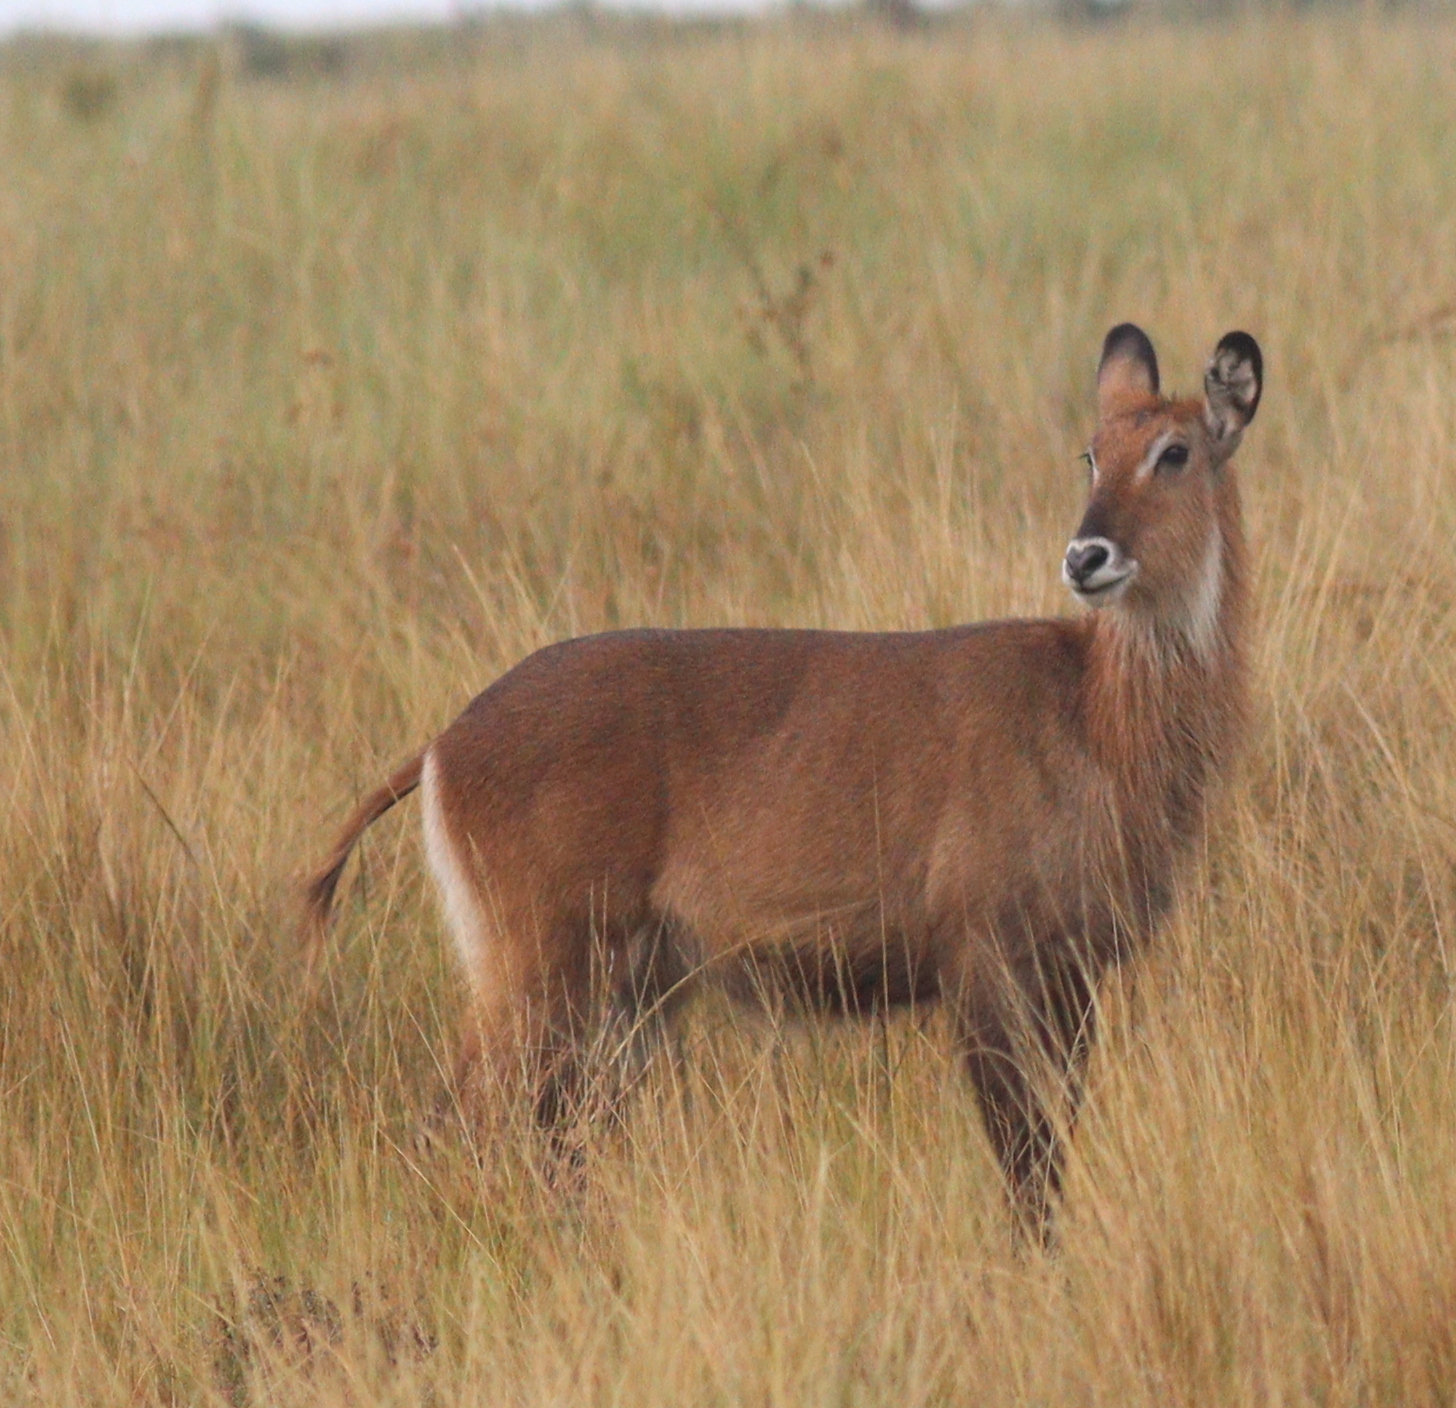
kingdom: Animalia
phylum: Chordata
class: Mammalia
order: Artiodactyla
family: Bovidae
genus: Kobus
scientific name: Kobus ellipsiprymnus
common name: Waterbuck
